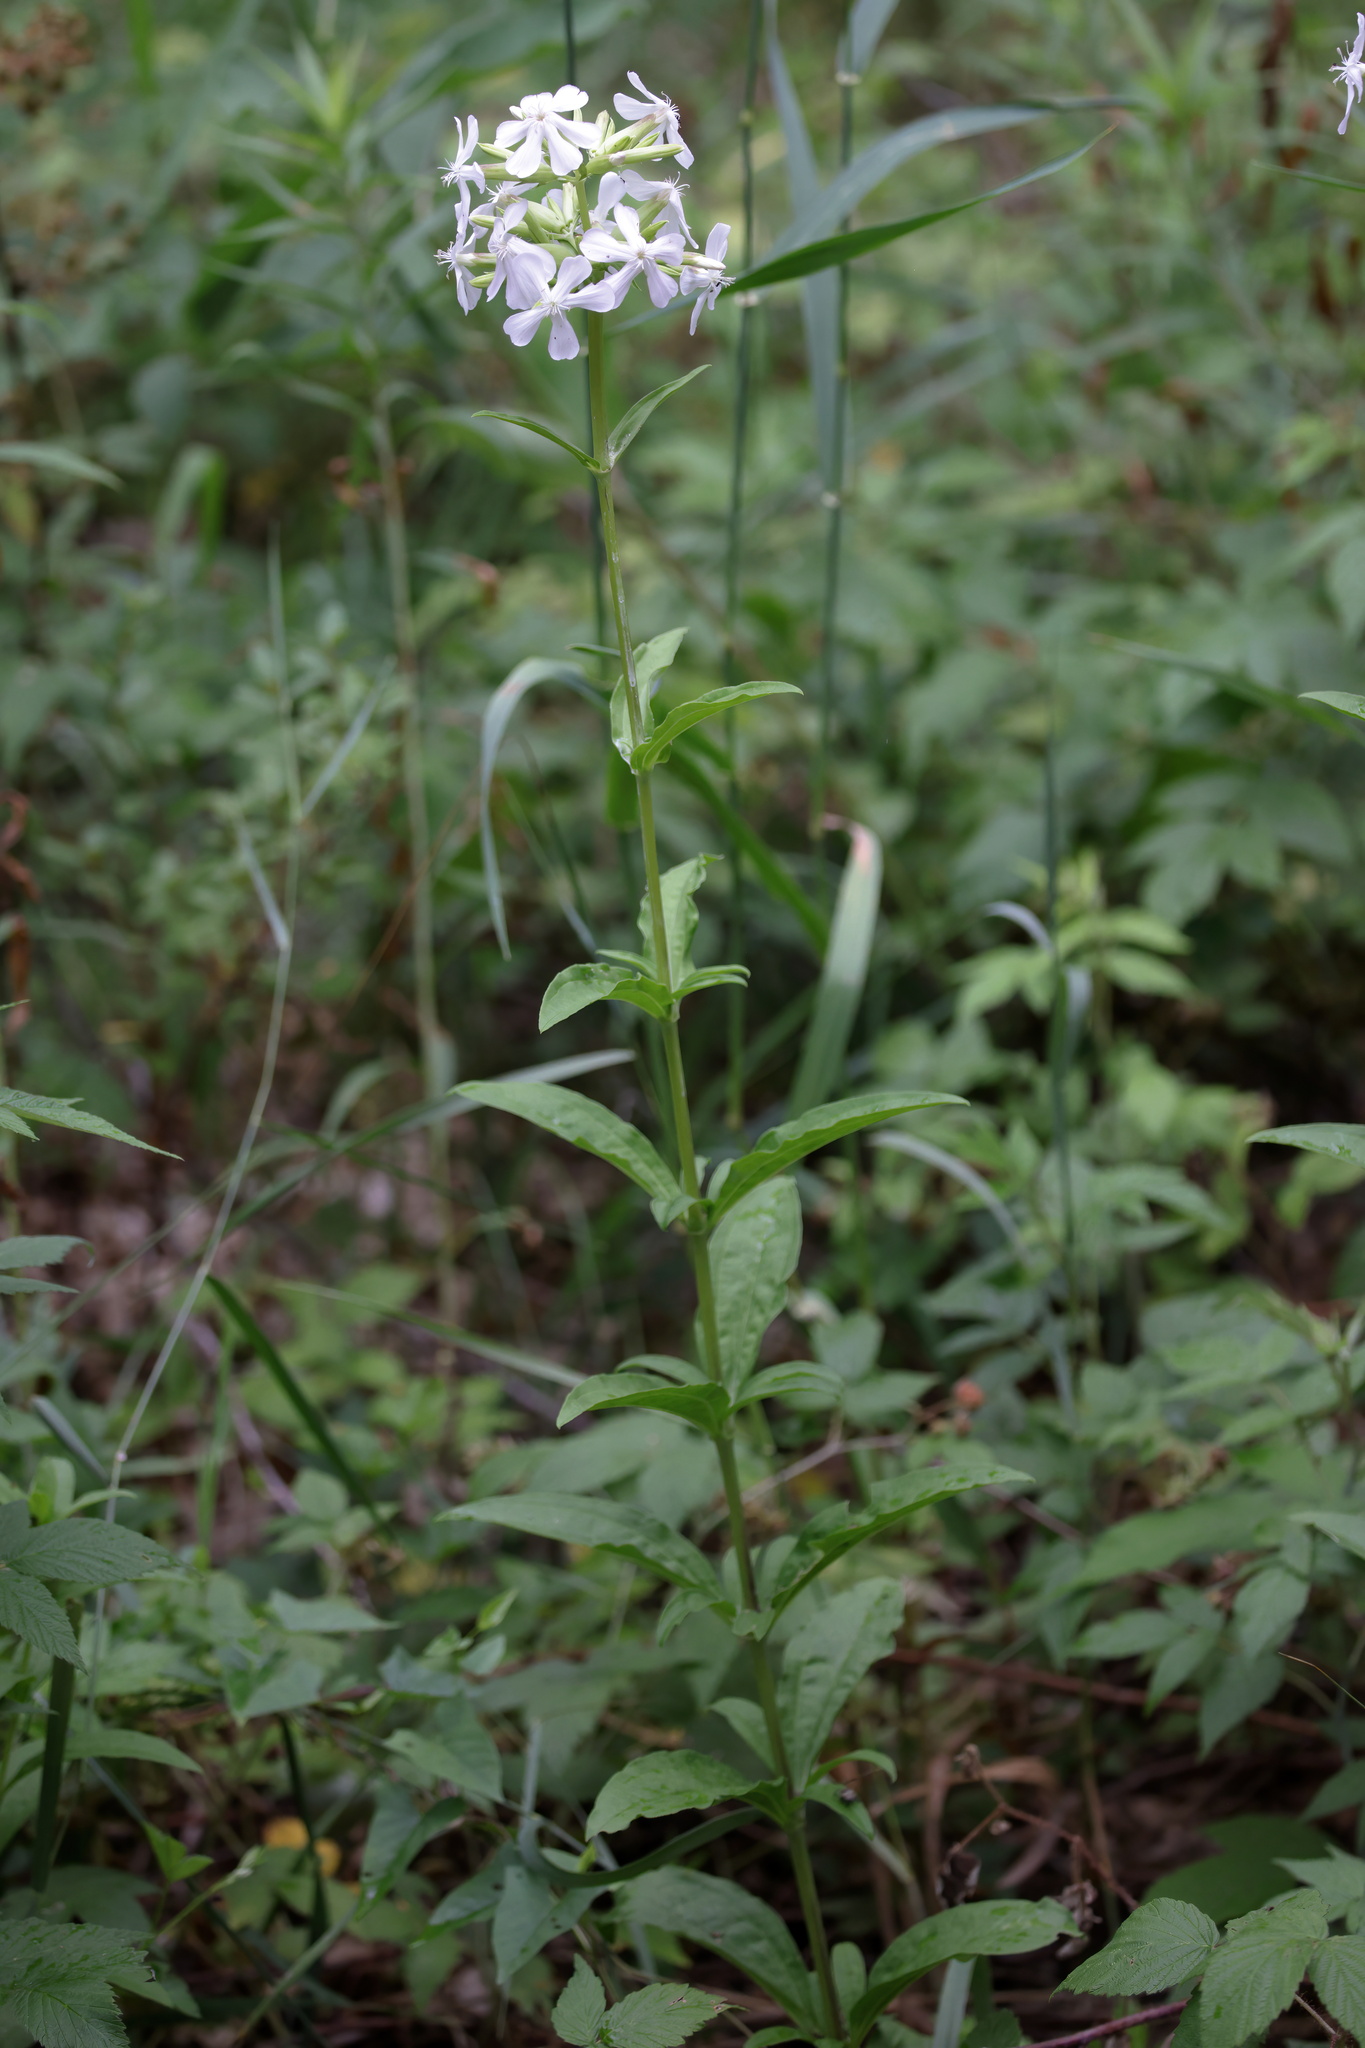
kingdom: Plantae
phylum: Tracheophyta
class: Magnoliopsida
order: Caryophyllales
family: Caryophyllaceae
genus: Saponaria
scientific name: Saponaria officinalis
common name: Soapwort
